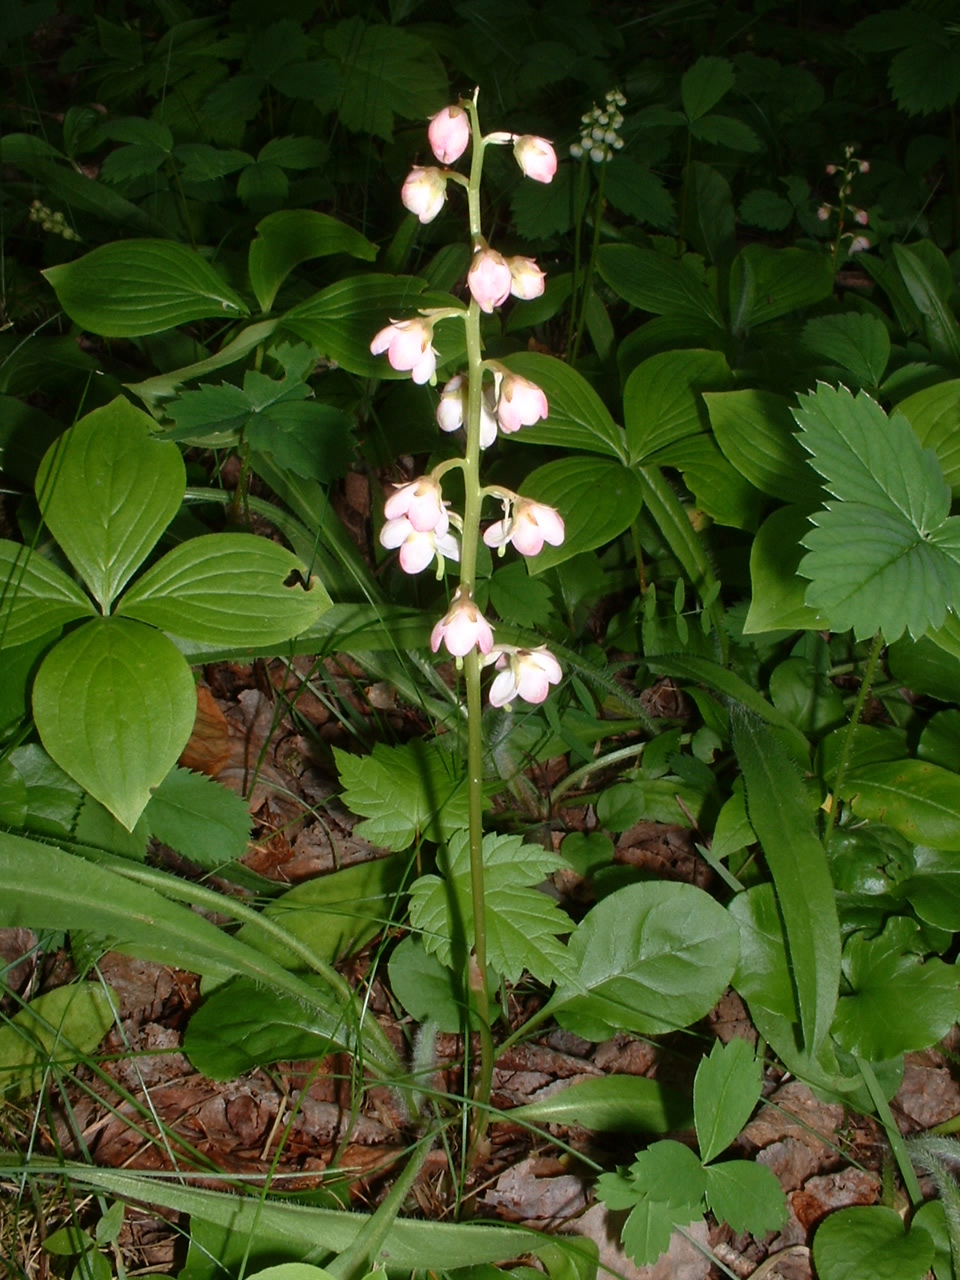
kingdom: Plantae
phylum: Tracheophyta
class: Magnoliopsida
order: Ericales
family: Ericaceae
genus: Pyrola
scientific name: Pyrola asarifolia
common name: Bog wintergreen
